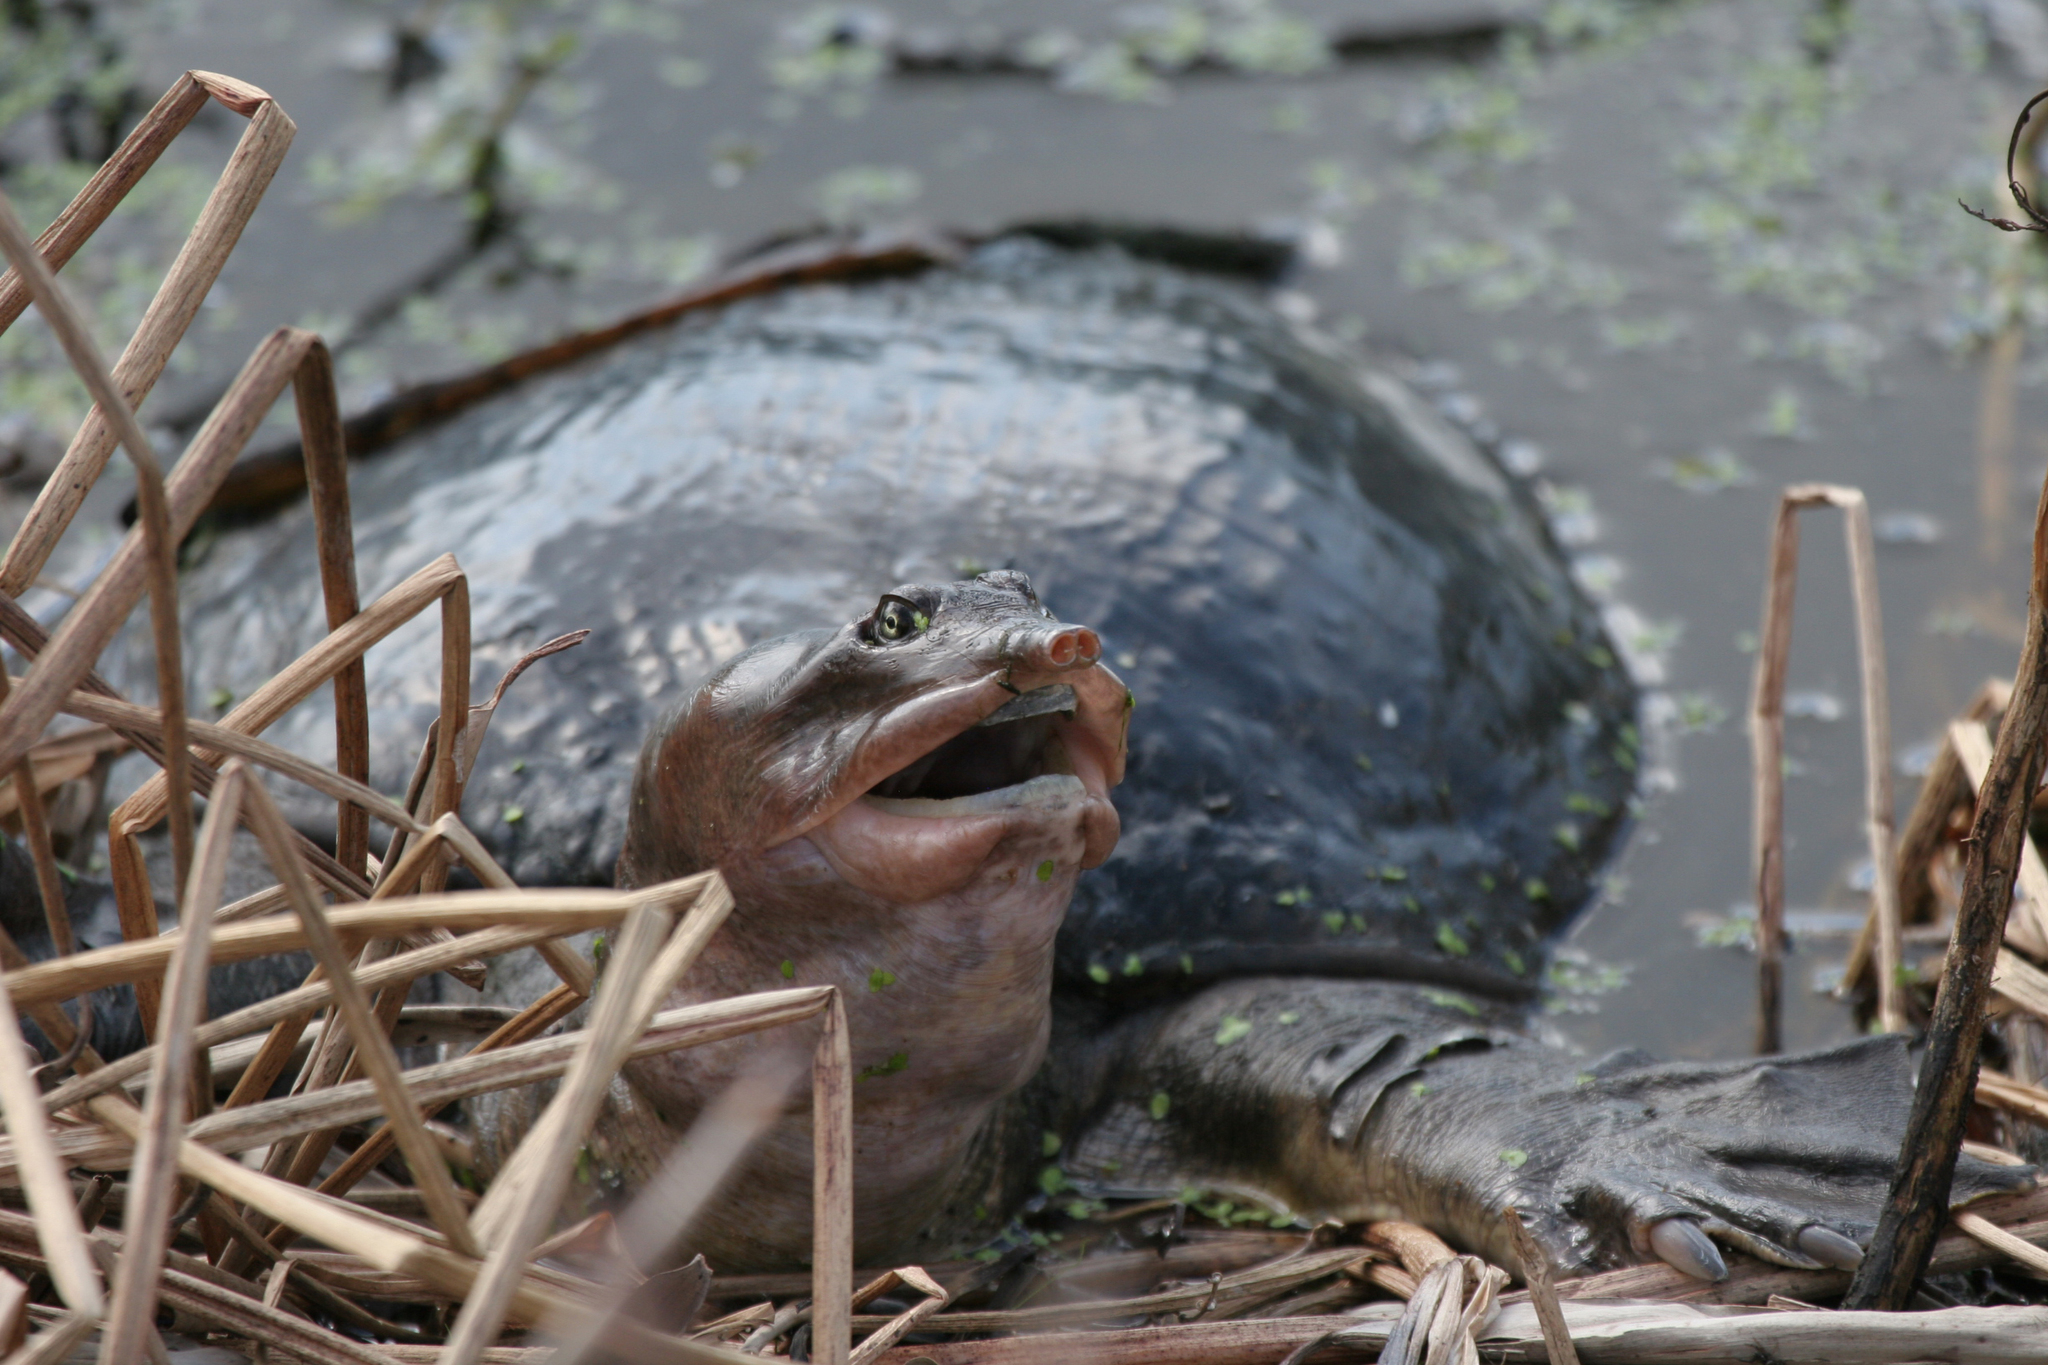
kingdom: Animalia
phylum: Chordata
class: Testudines
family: Trionychidae
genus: Apalone
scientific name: Apalone ferox
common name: Florida softshell turtle
